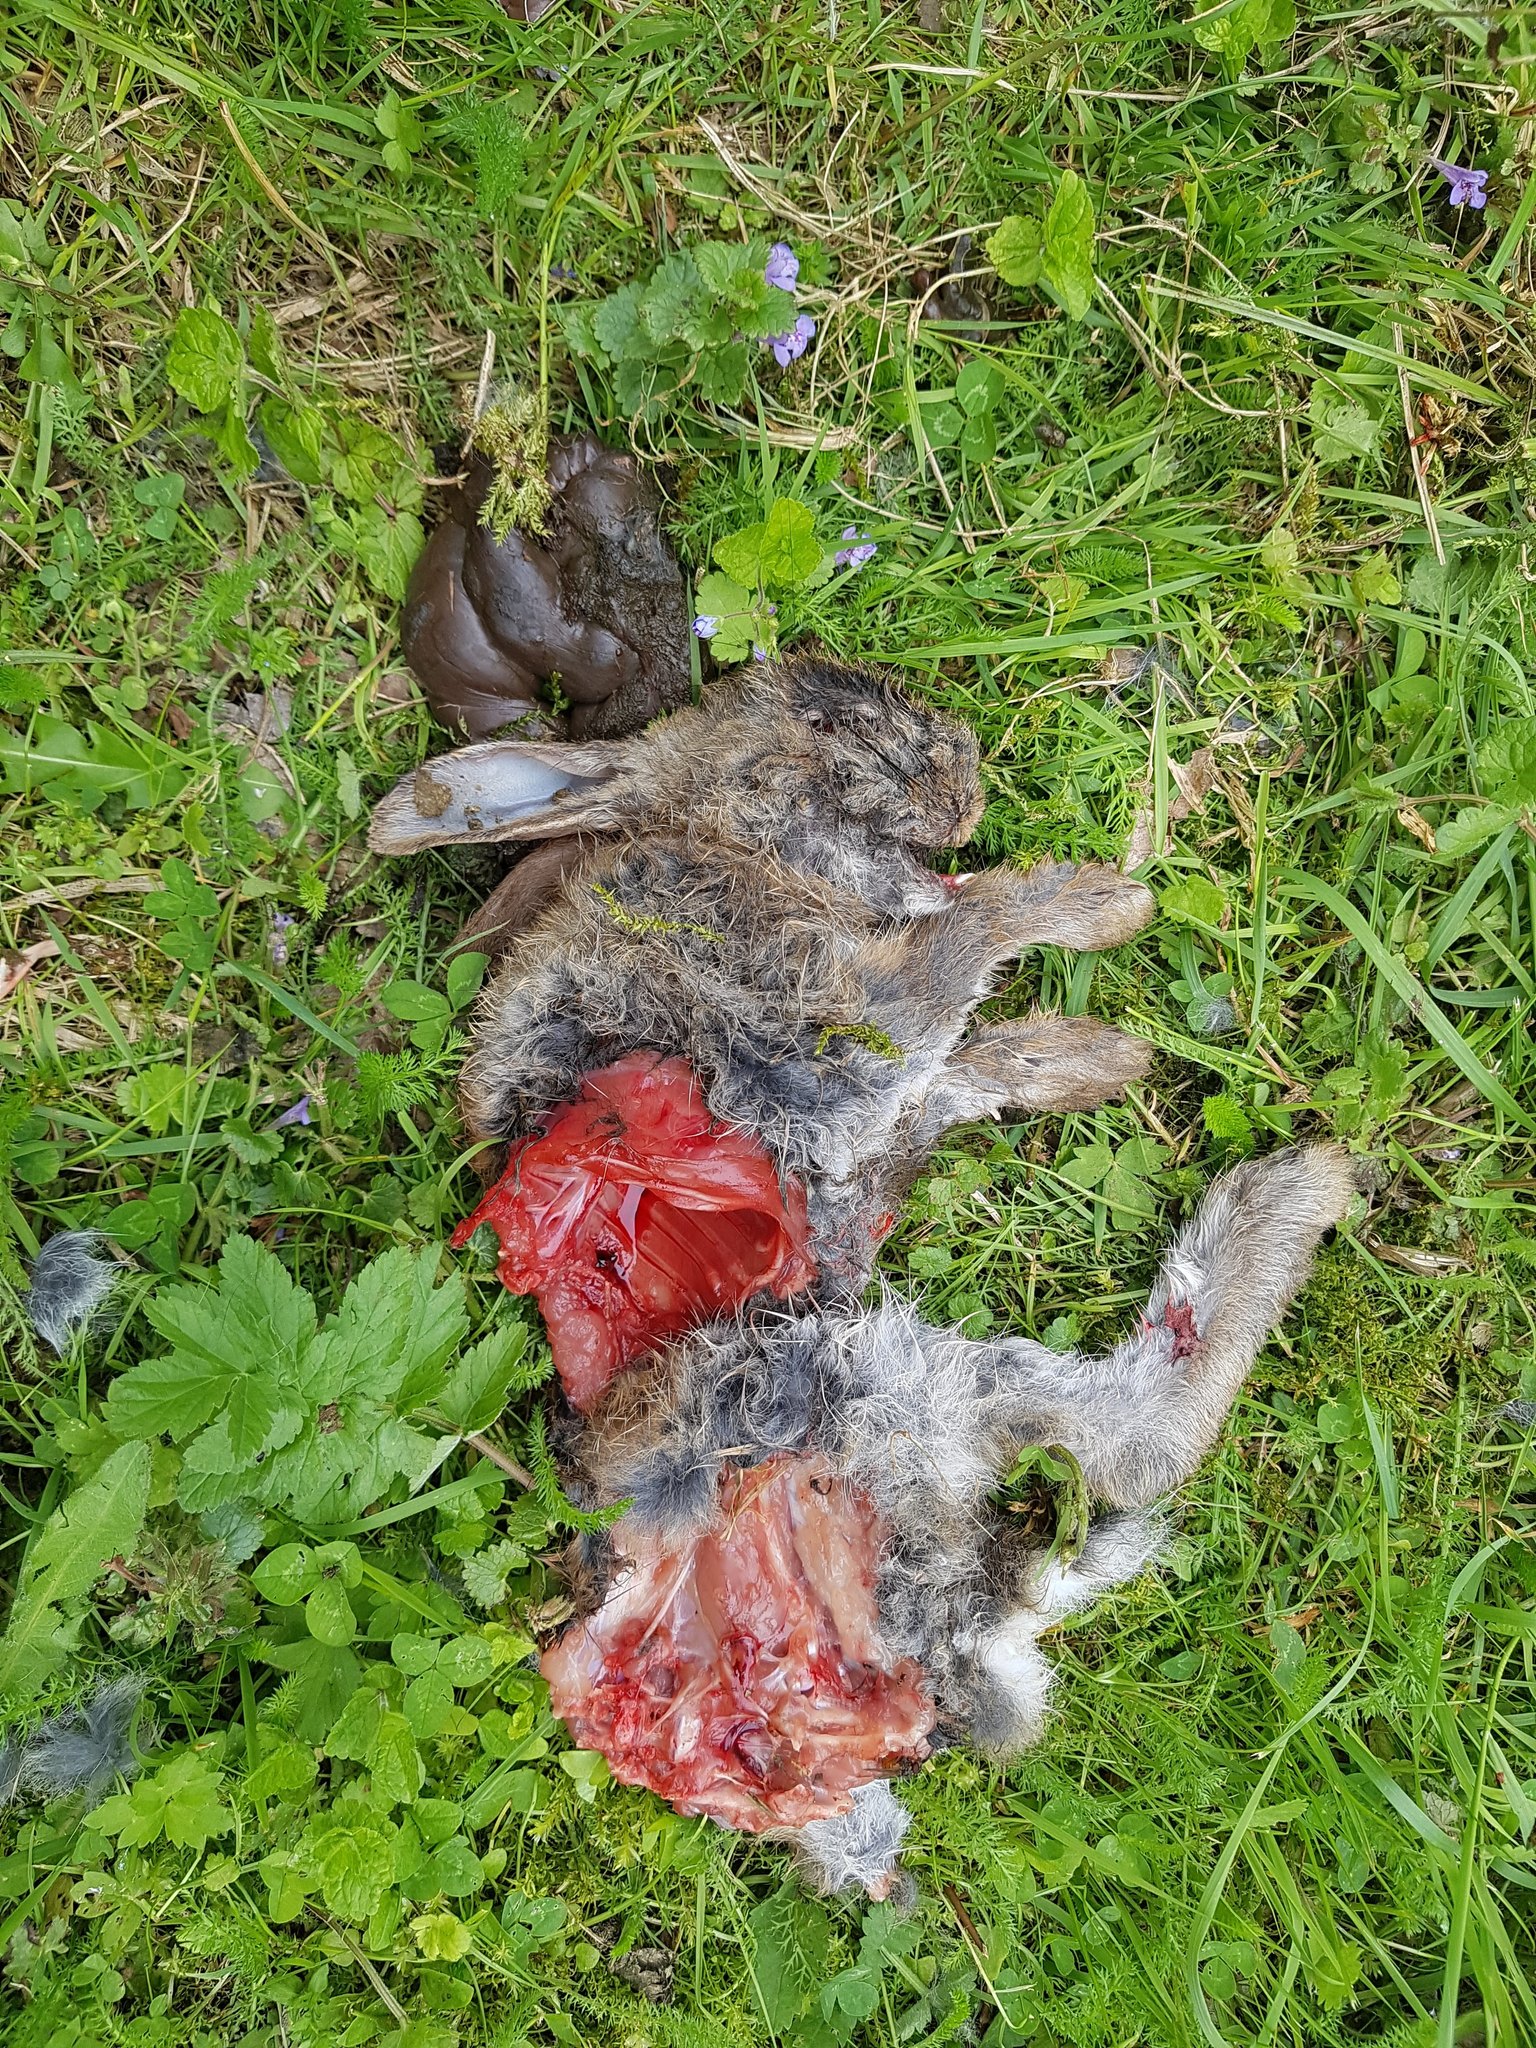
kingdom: Animalia
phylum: Chordata
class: Mammalia
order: Lagomorpha
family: Leporidae
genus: Oryctolagus
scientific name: Oryctolagus cuniculus
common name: European rabbit
